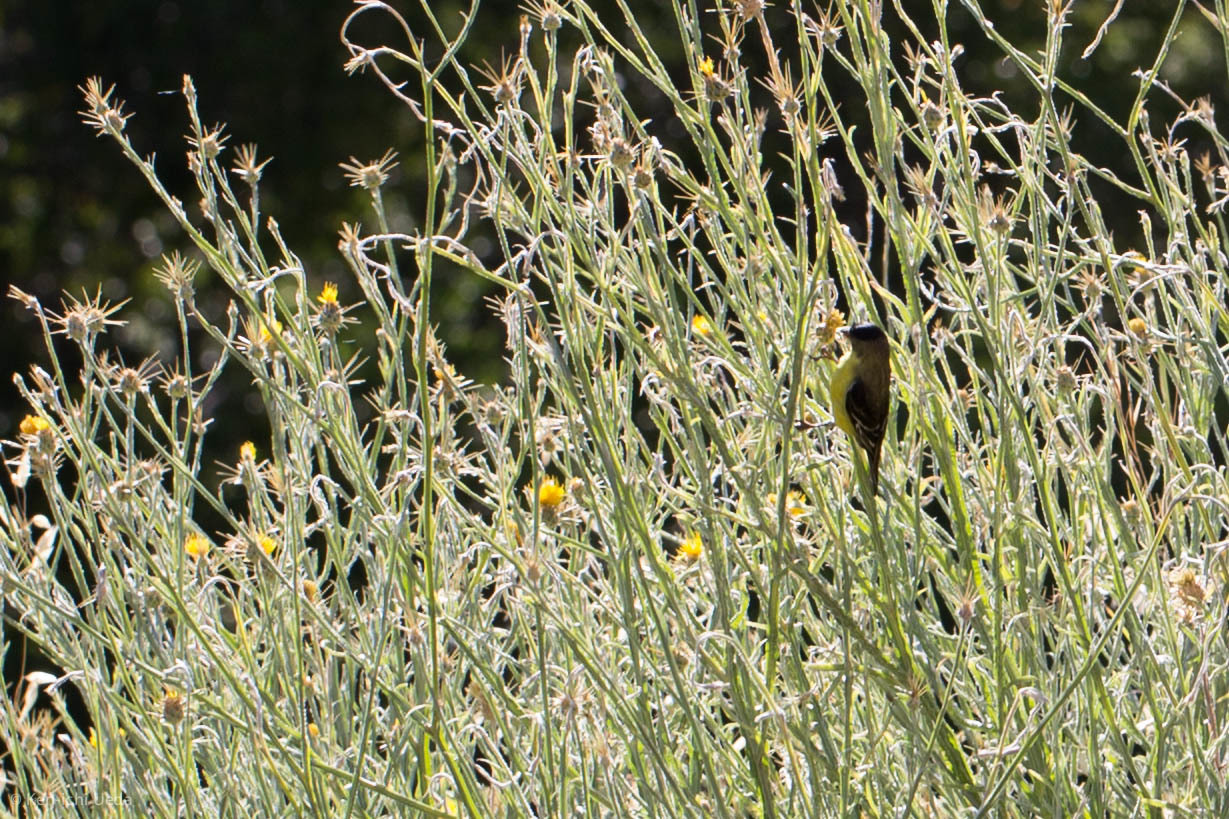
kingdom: Animalia
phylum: Chordata
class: Aves
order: Passeriformes
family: Fringillidae
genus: Spinus
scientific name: Spinus psaltria
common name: Lesser goldfinch
